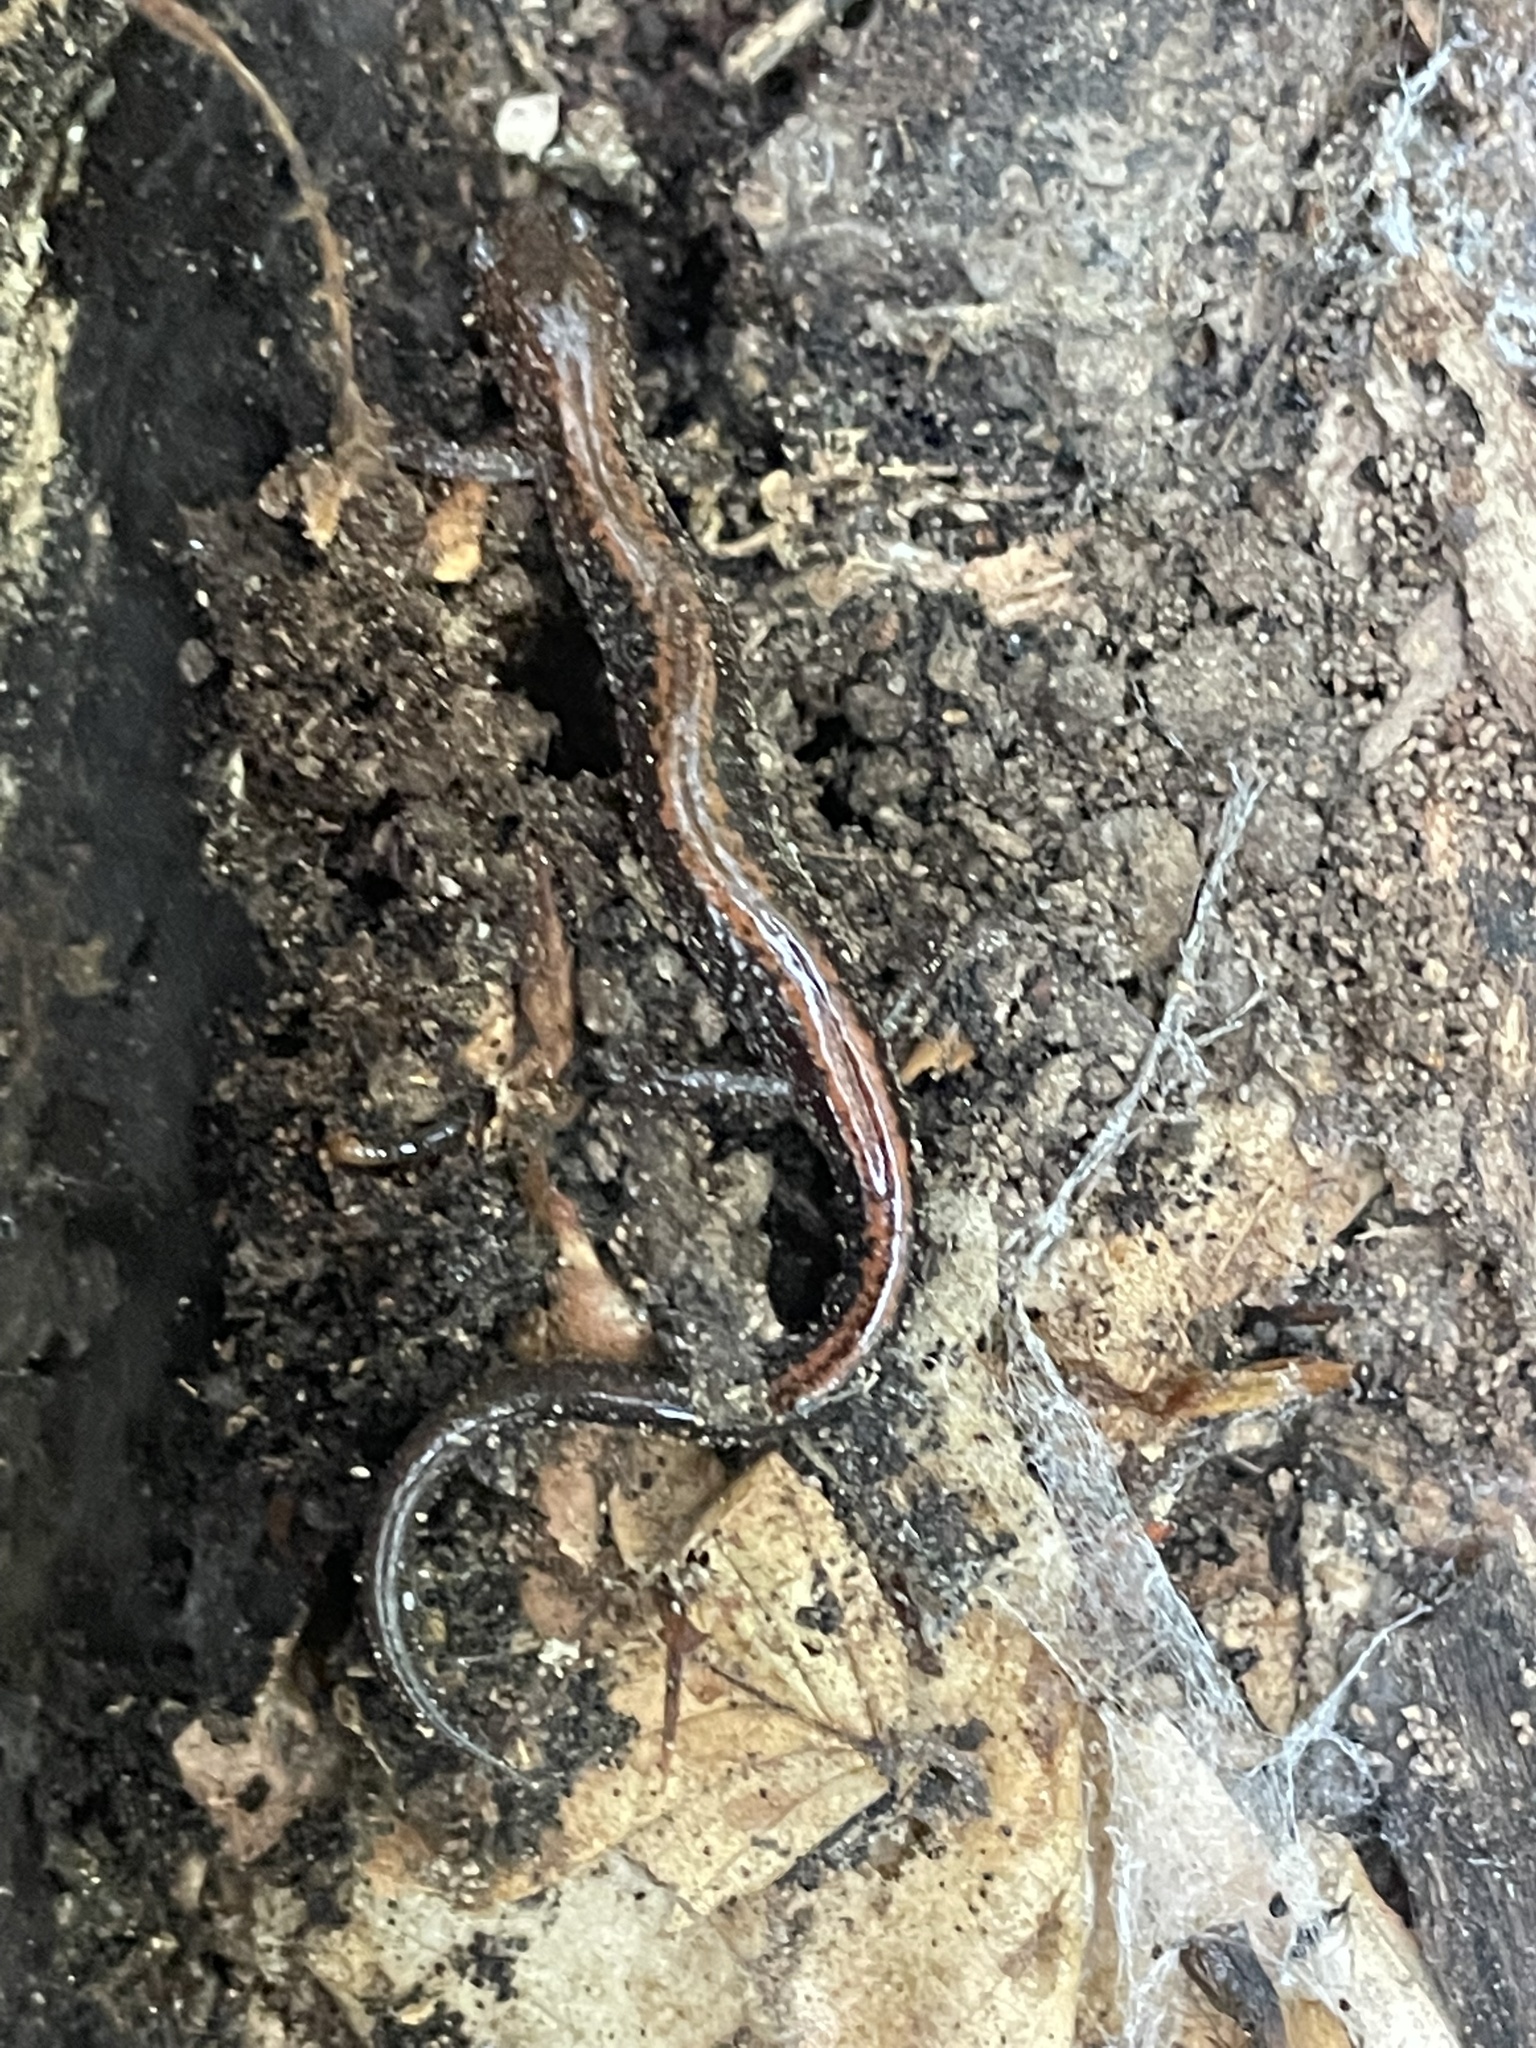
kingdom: Animalia
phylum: Chordata
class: Amphibia
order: Caudata
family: Plethodontidae
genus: Plethodon
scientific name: Plethodon cinereus
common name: Redback salamander
